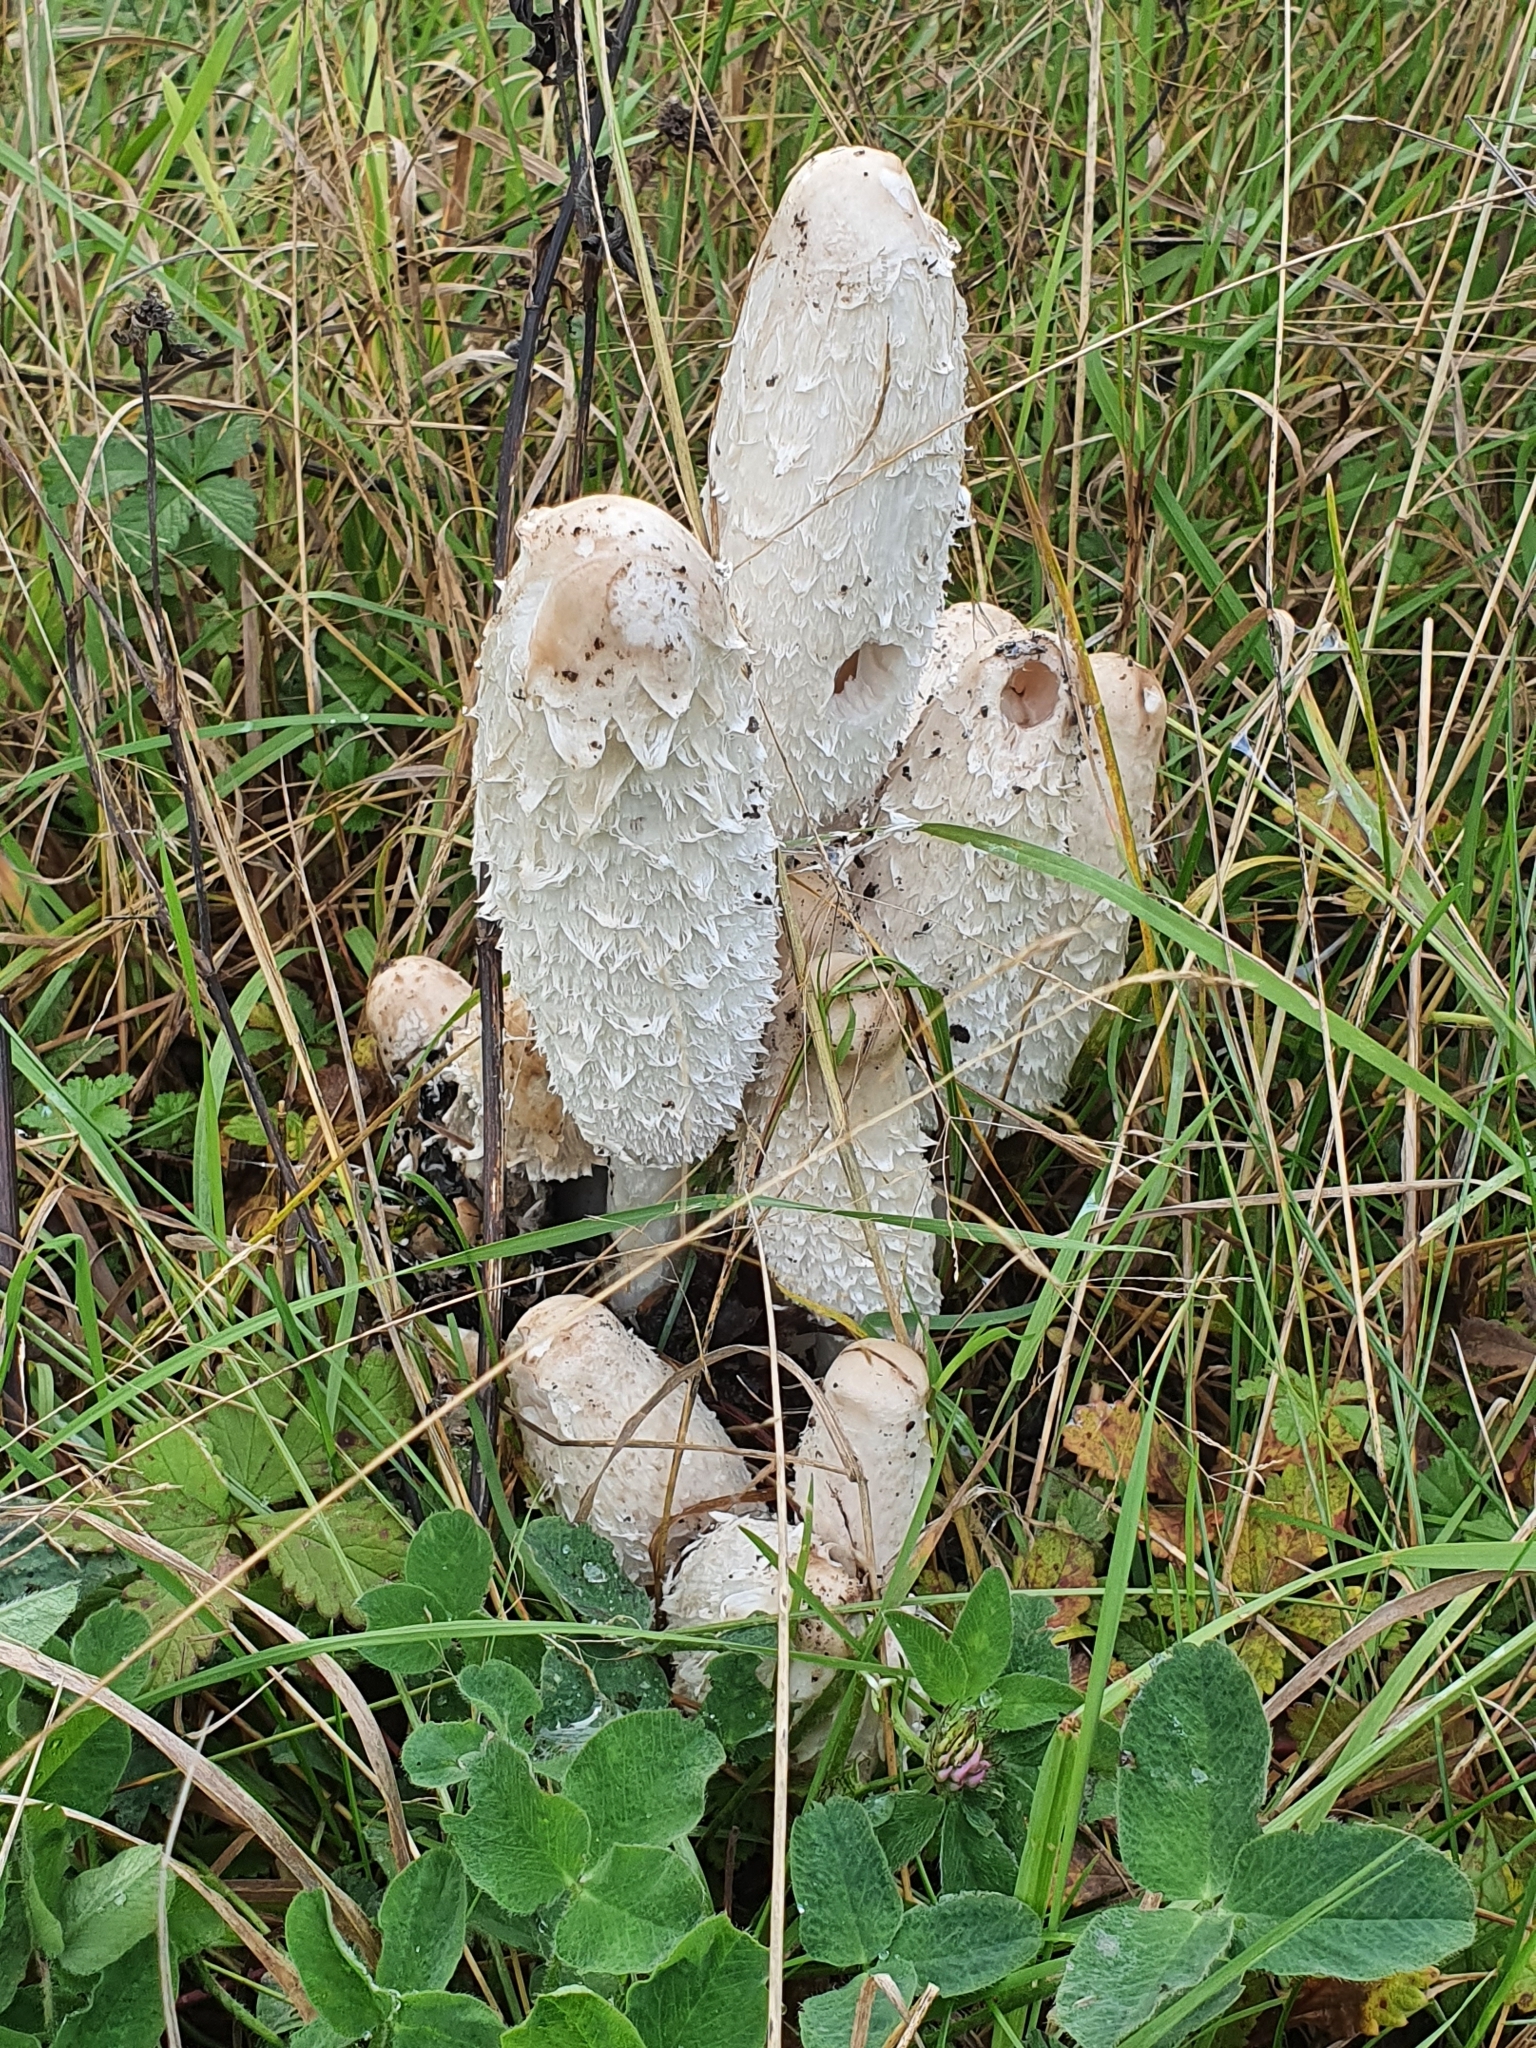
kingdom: Fungi
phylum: Basidiomycota
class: Agaricomycetes
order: Agaricales
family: Agaricaceae
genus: Coprinus
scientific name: Coprinus comatus
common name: Lawyer's wig
